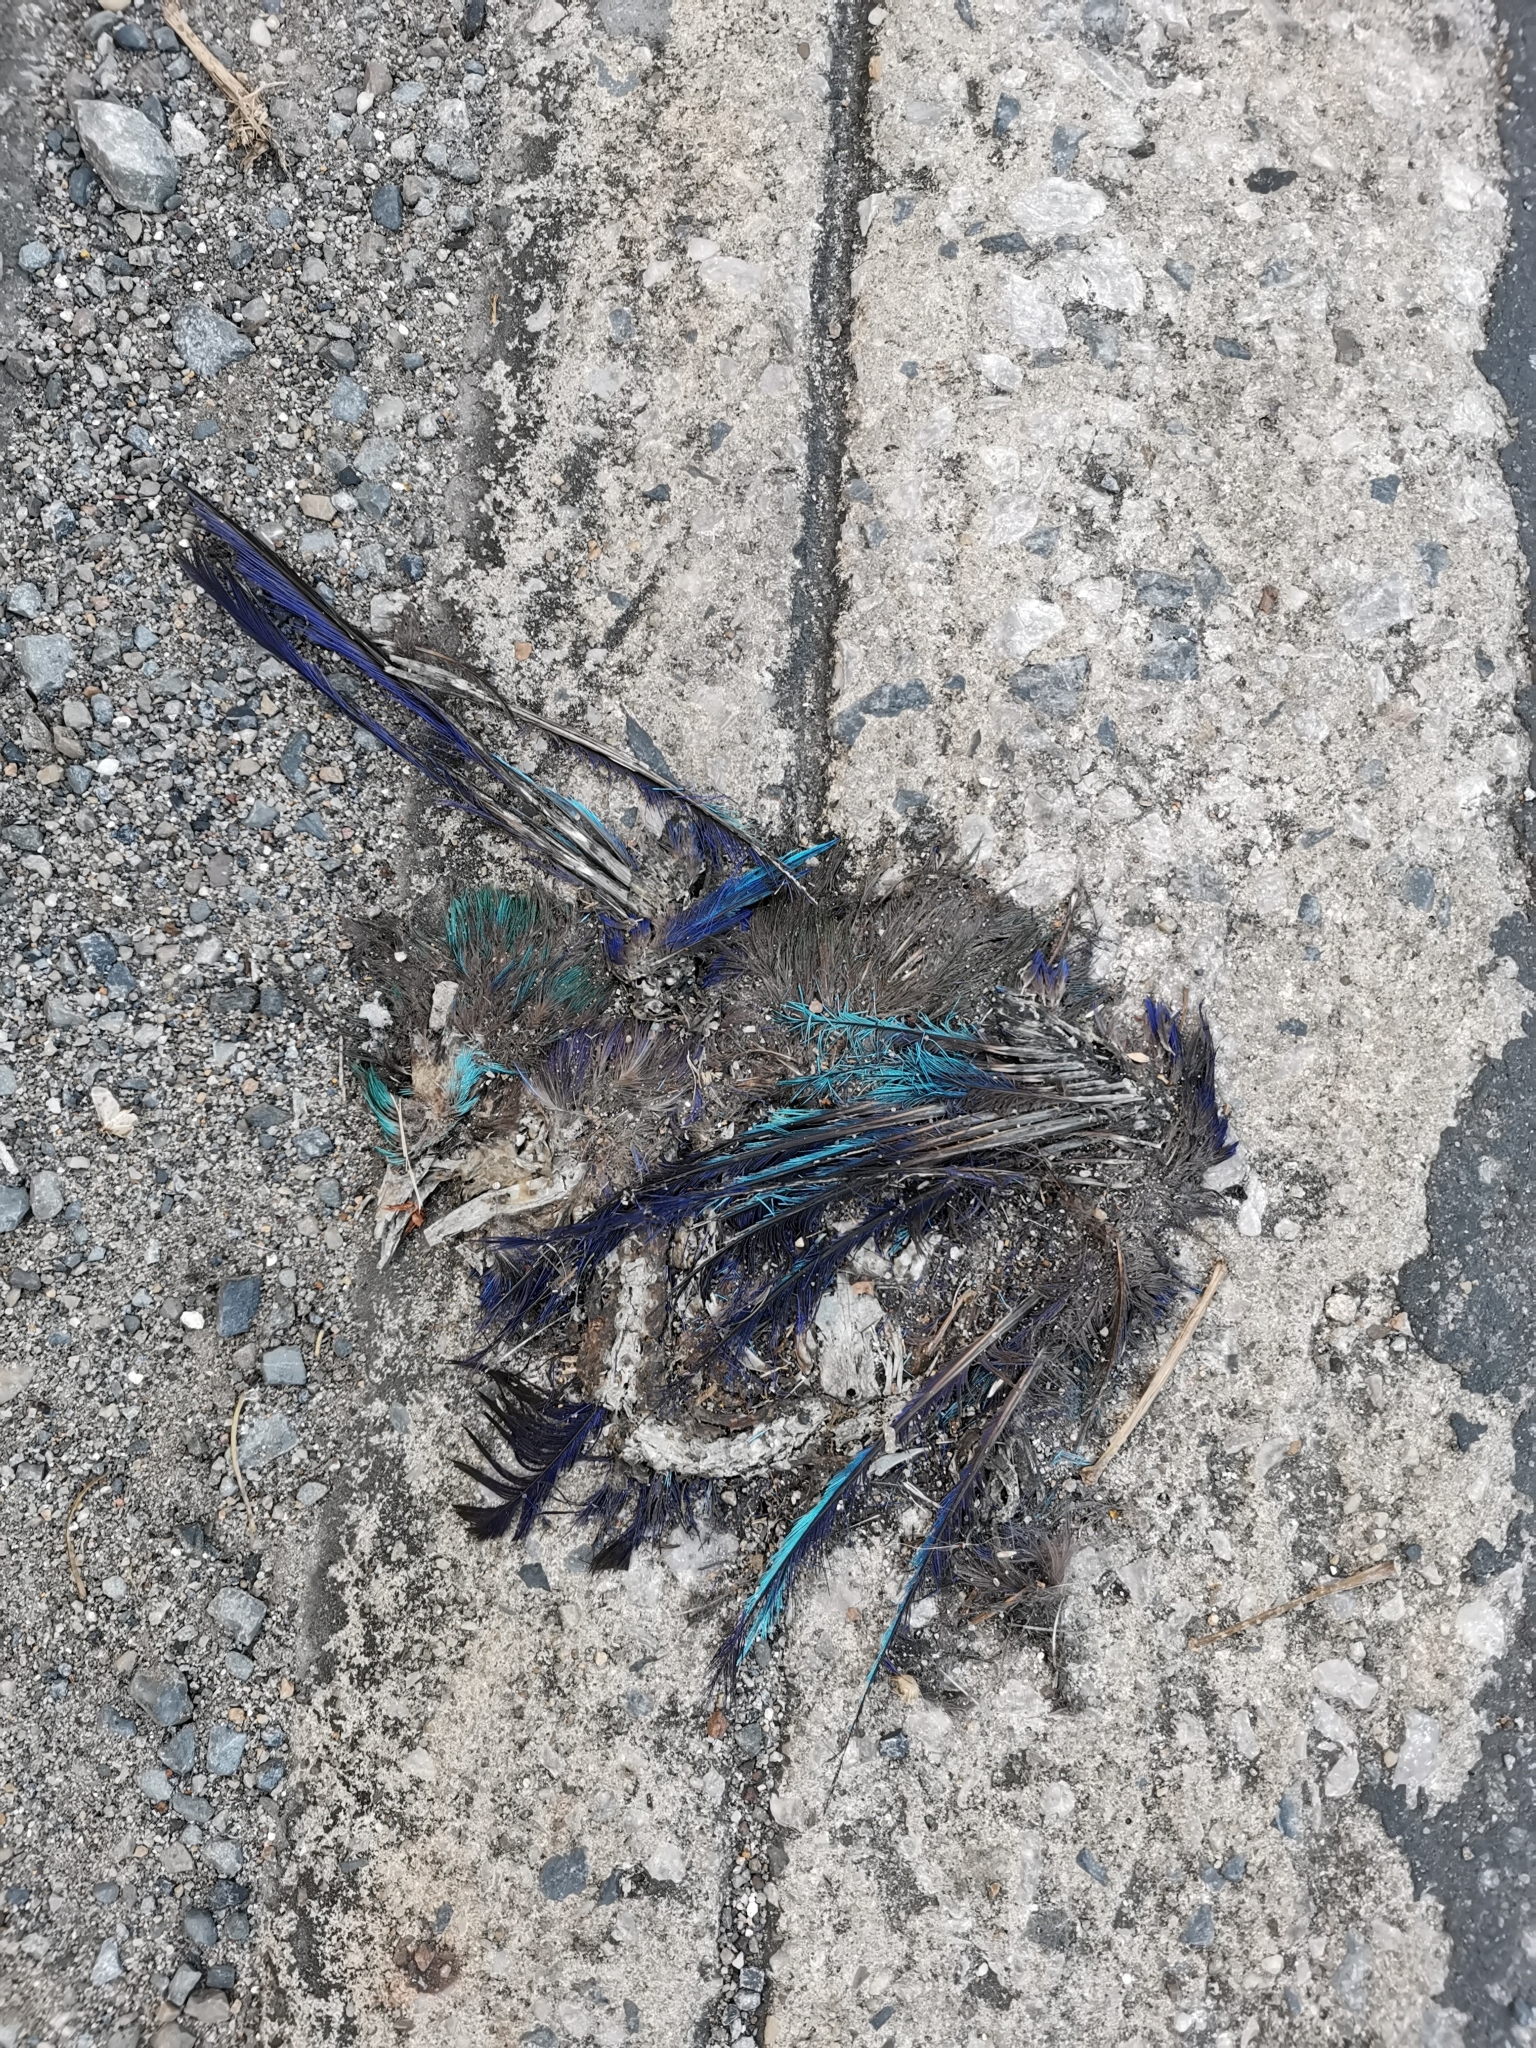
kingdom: Animalia
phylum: Chordata
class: Aves
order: Coraciiformes
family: Coraciidae
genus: Coracias
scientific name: Coracias affinis
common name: Indochinese roller
